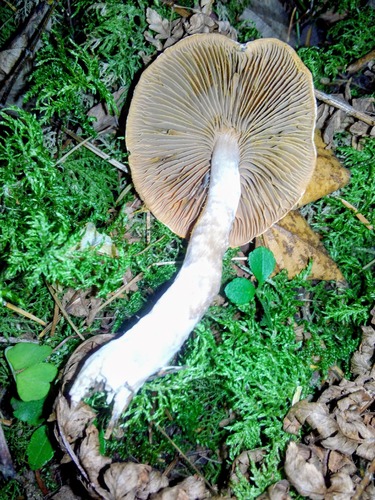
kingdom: Fungi
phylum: Basidiomycota
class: Agaricomycetes
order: Agaricales
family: Strophariaceae
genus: Hypholoma
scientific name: Hypholoma
